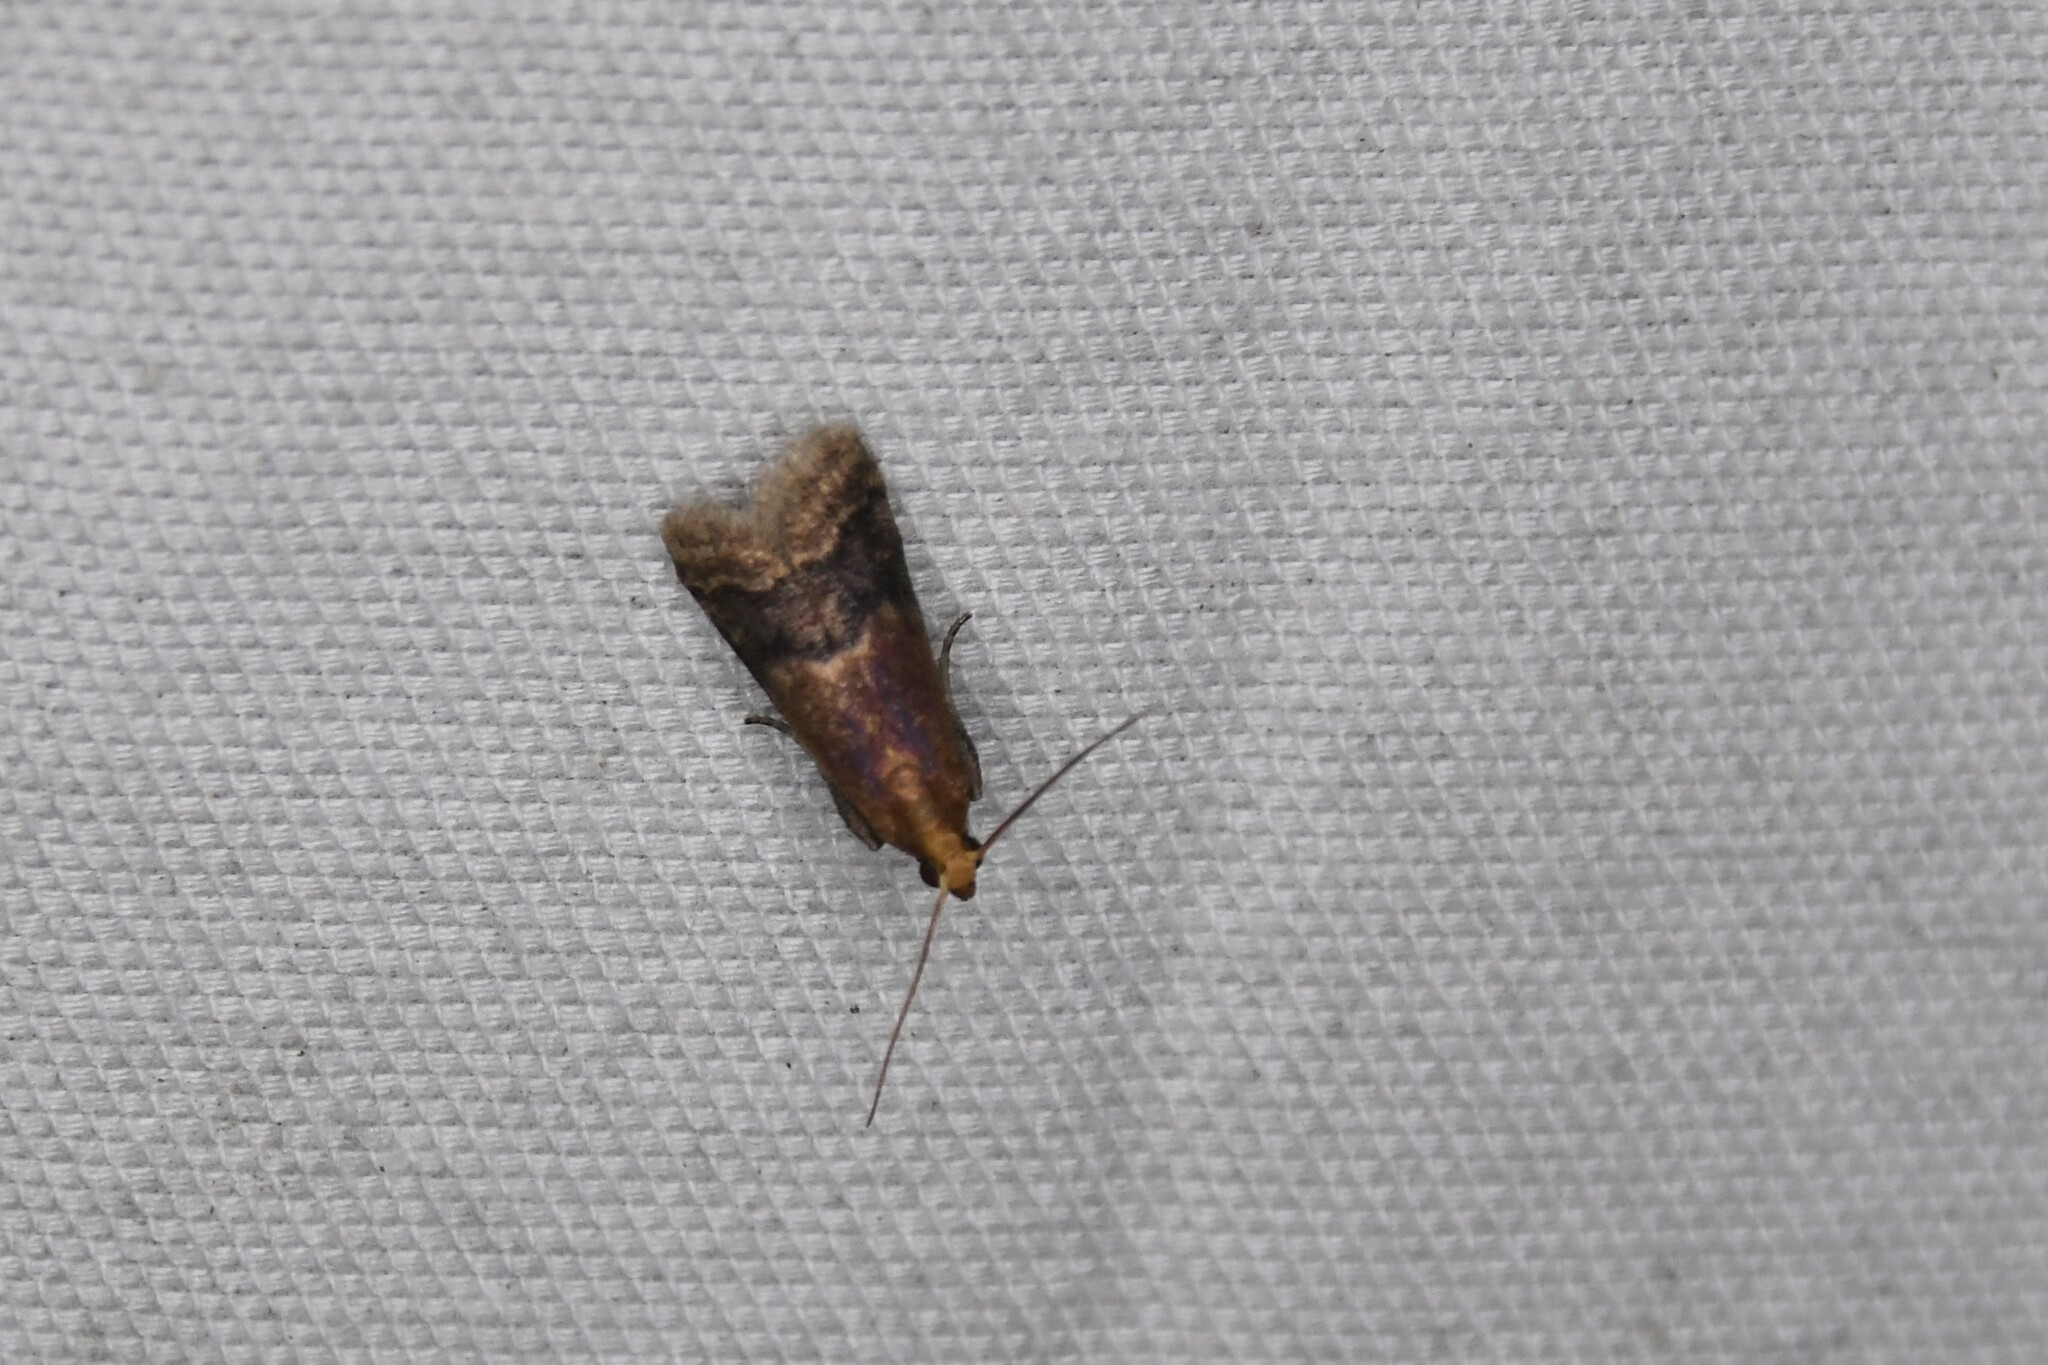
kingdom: Animalia
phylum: Arthropoda
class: Insecta
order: Lepidoptera
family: Pyralidae
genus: Eulogia
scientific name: Eulogia ochrifrontella
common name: Broad-banded eulogia moth
